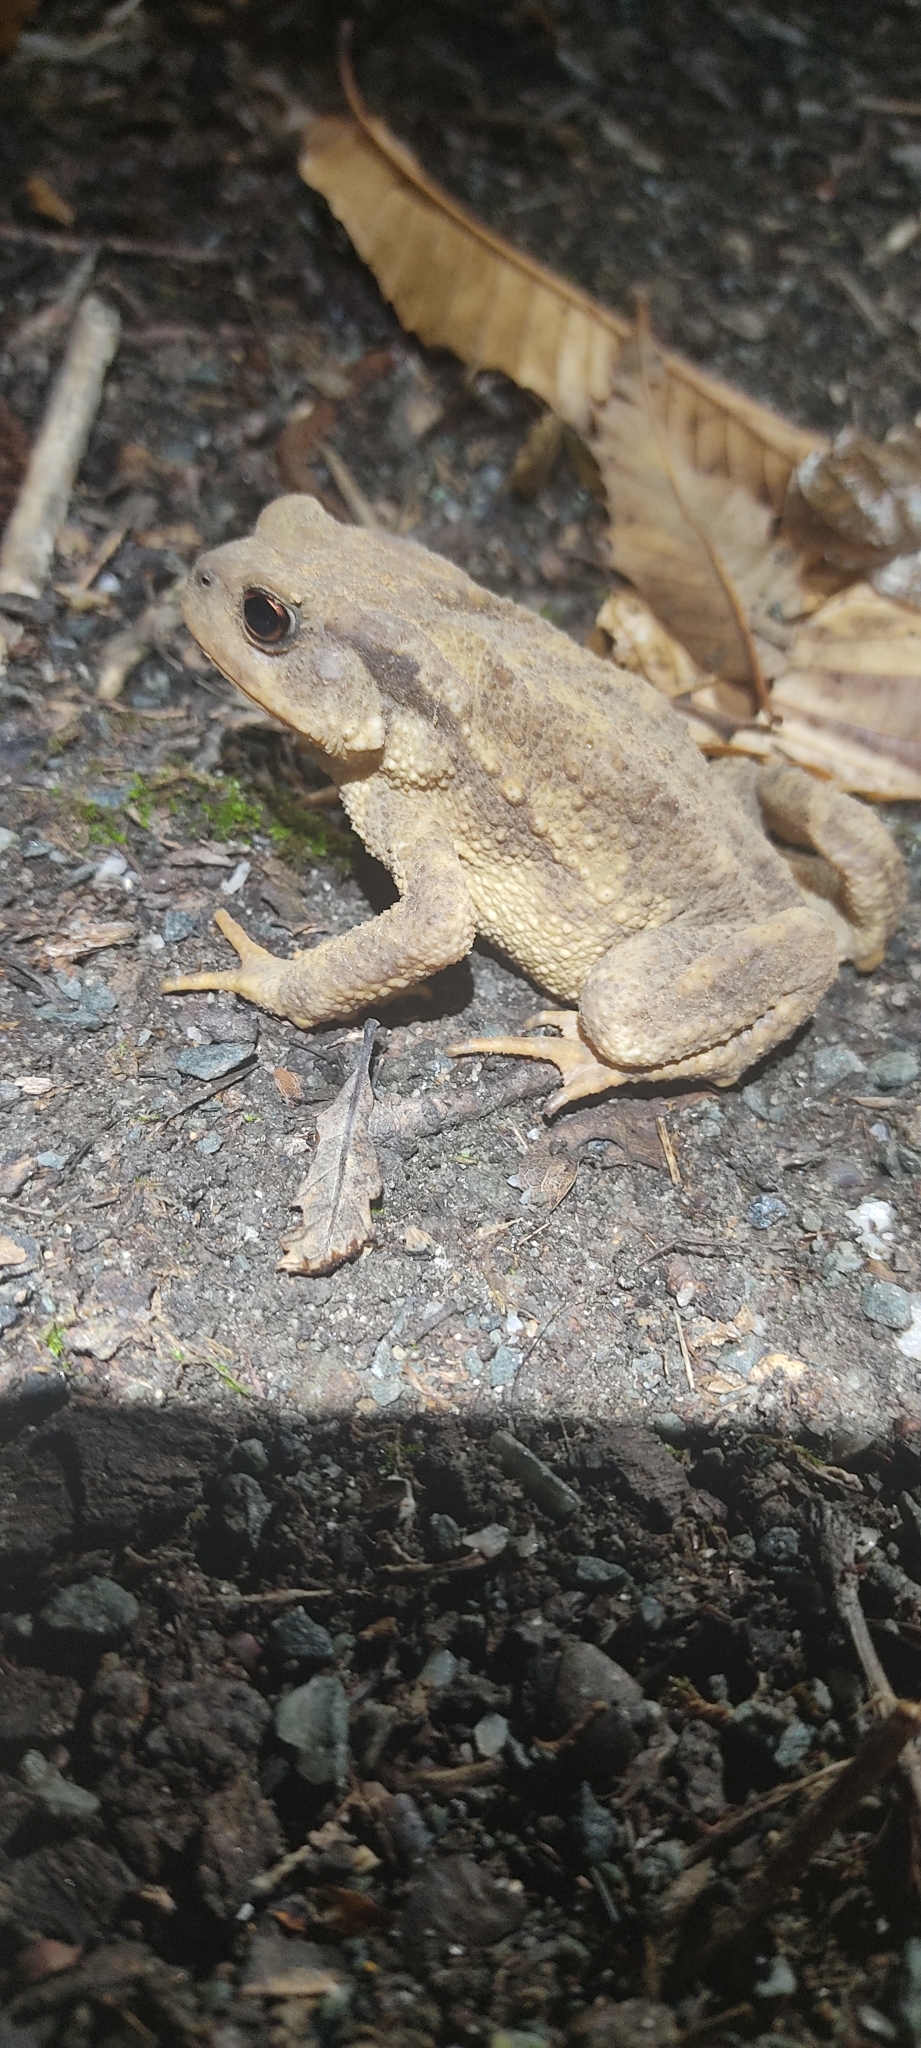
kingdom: Animalia
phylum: Chordata
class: Amphibia
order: Anura
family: Bufonidae
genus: Bufo
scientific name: Bufo spinosus
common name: Western common toad
